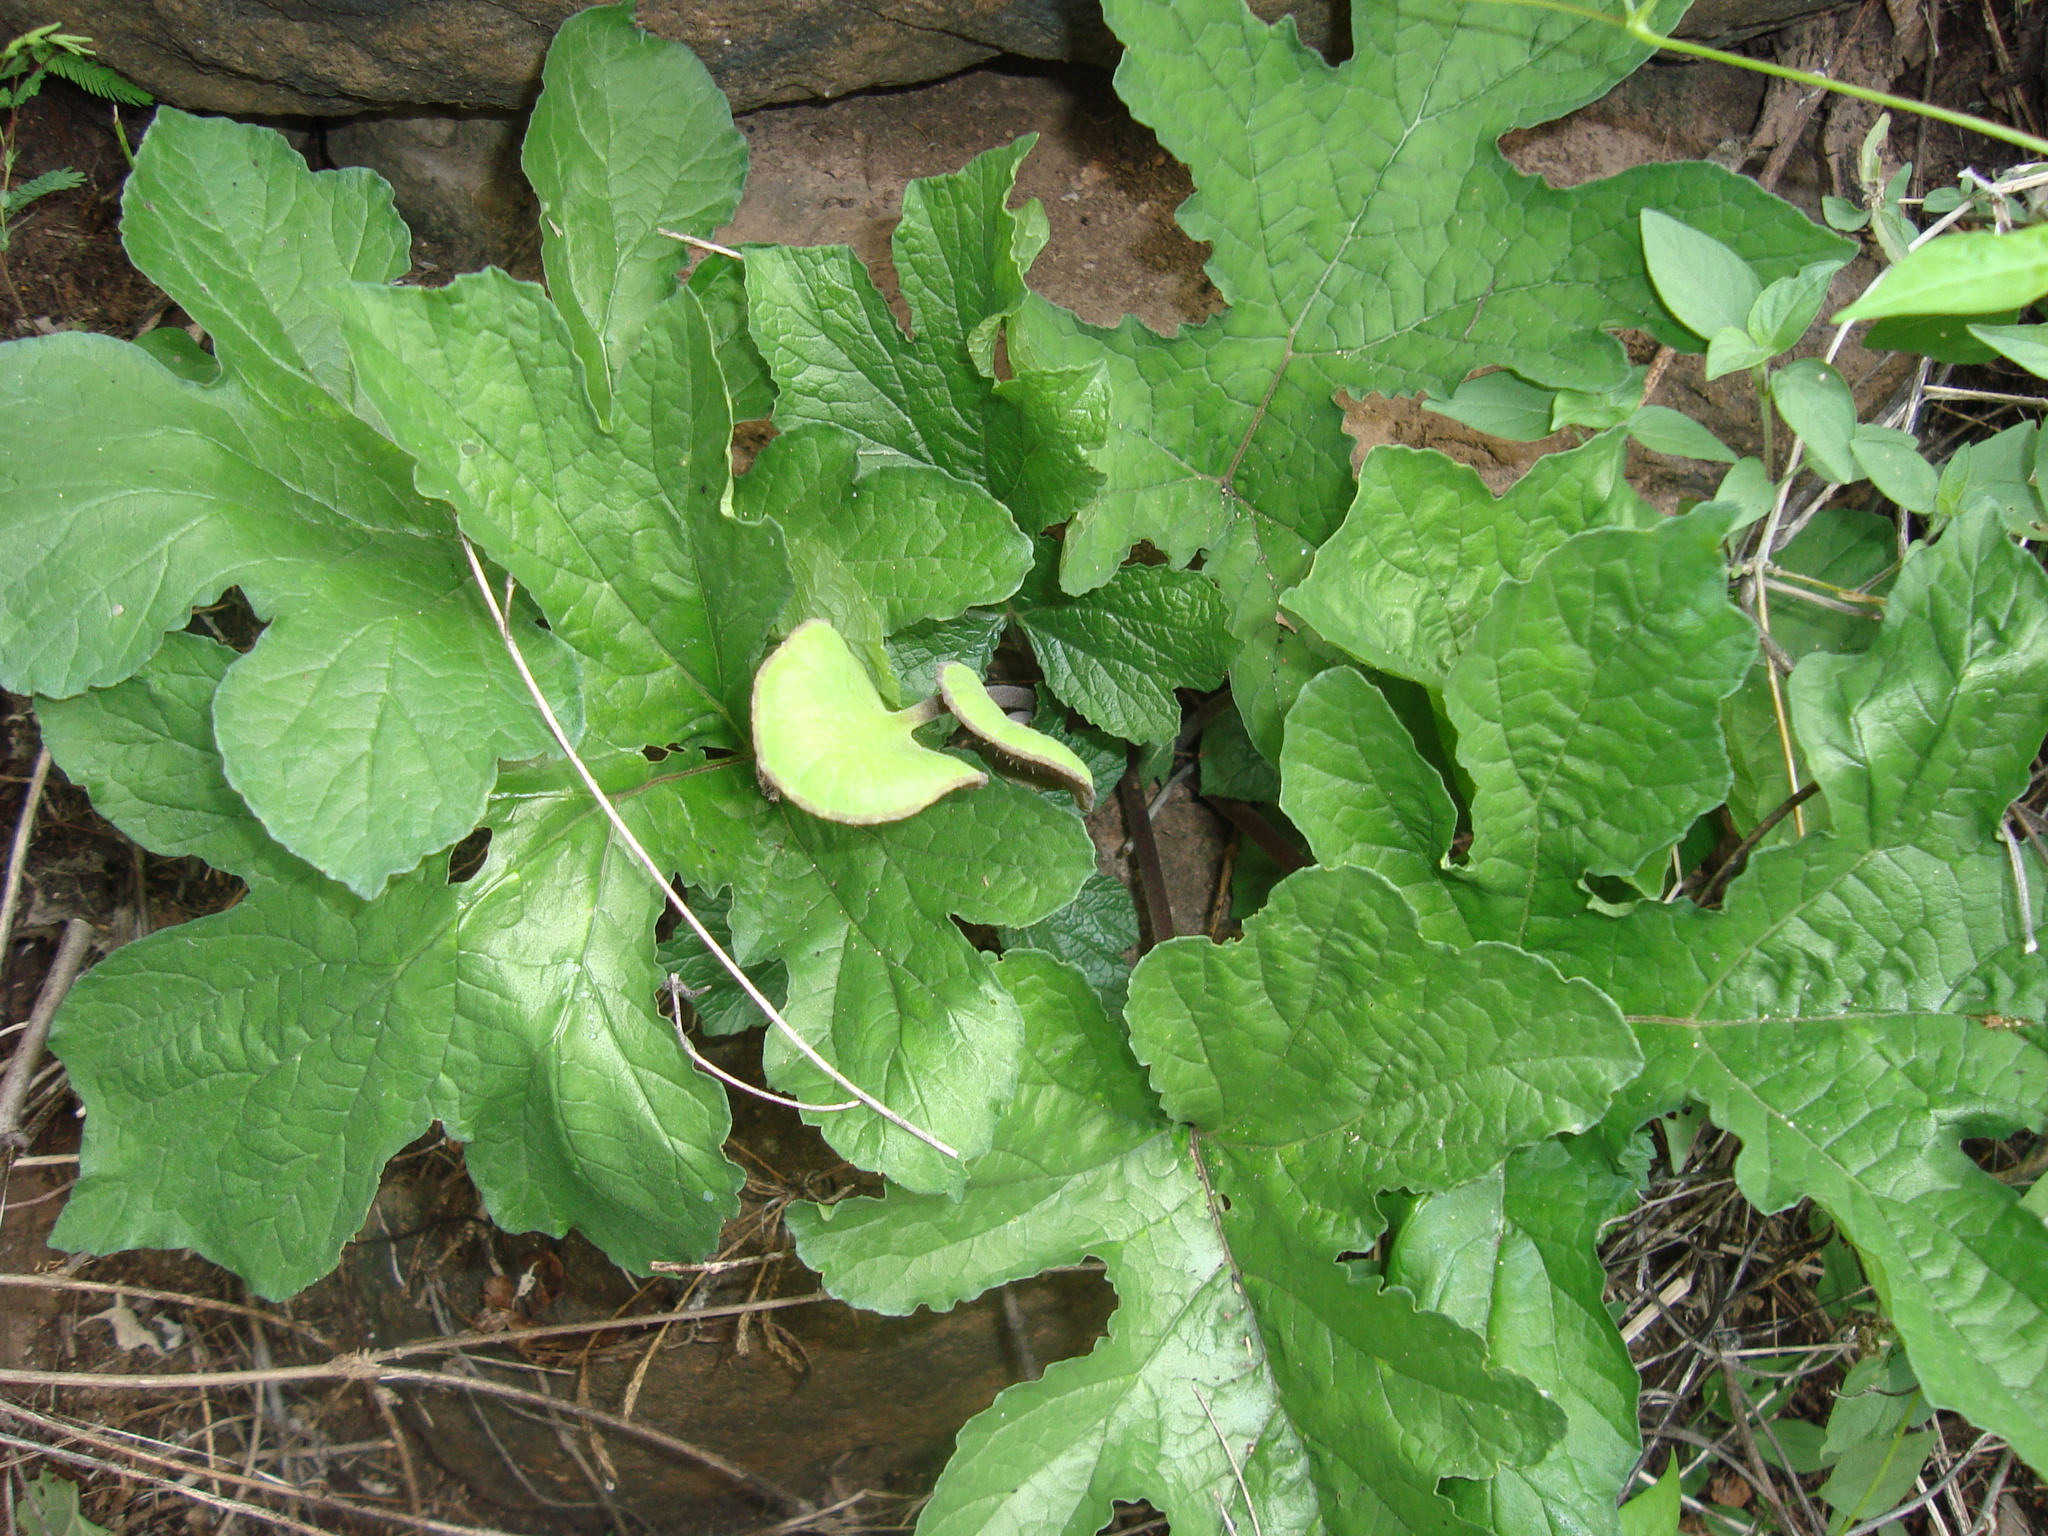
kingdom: Plantae
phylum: Tracheophyta
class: Magnoliopsida
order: Rosales
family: Moraceae
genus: Dorstenia
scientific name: Dorstenia drakena
